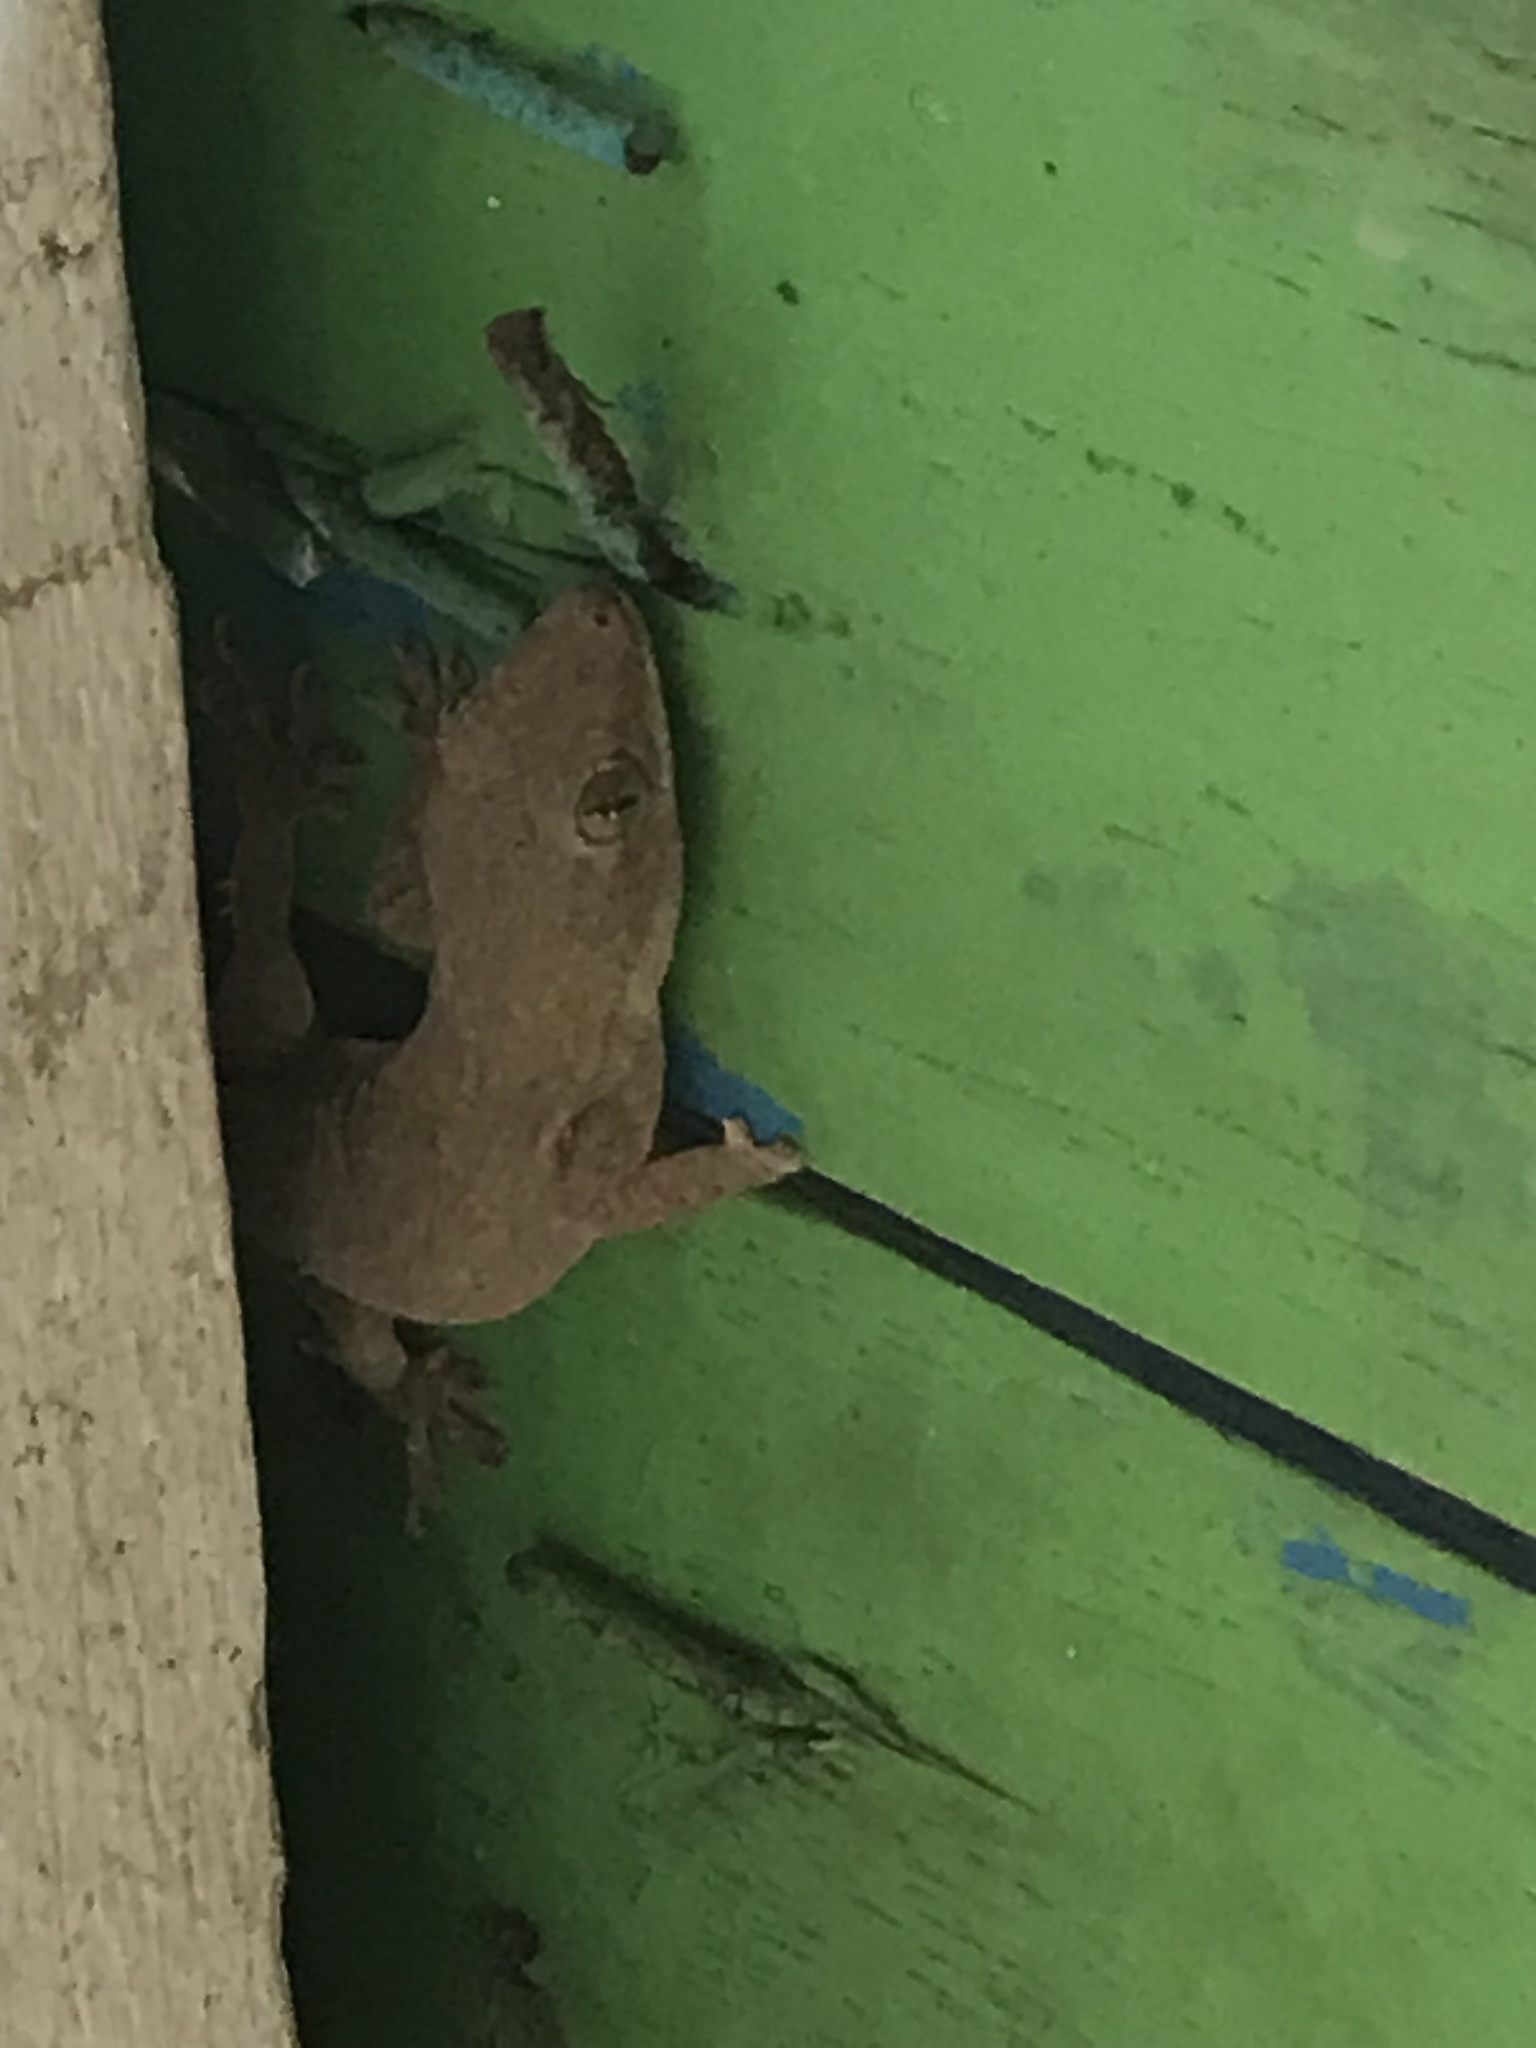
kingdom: Animalia
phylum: Chordata
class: Squamata
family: Gekkonidae
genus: Hemidactylus
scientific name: Hemidactylus frenatus
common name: Common house gecko
